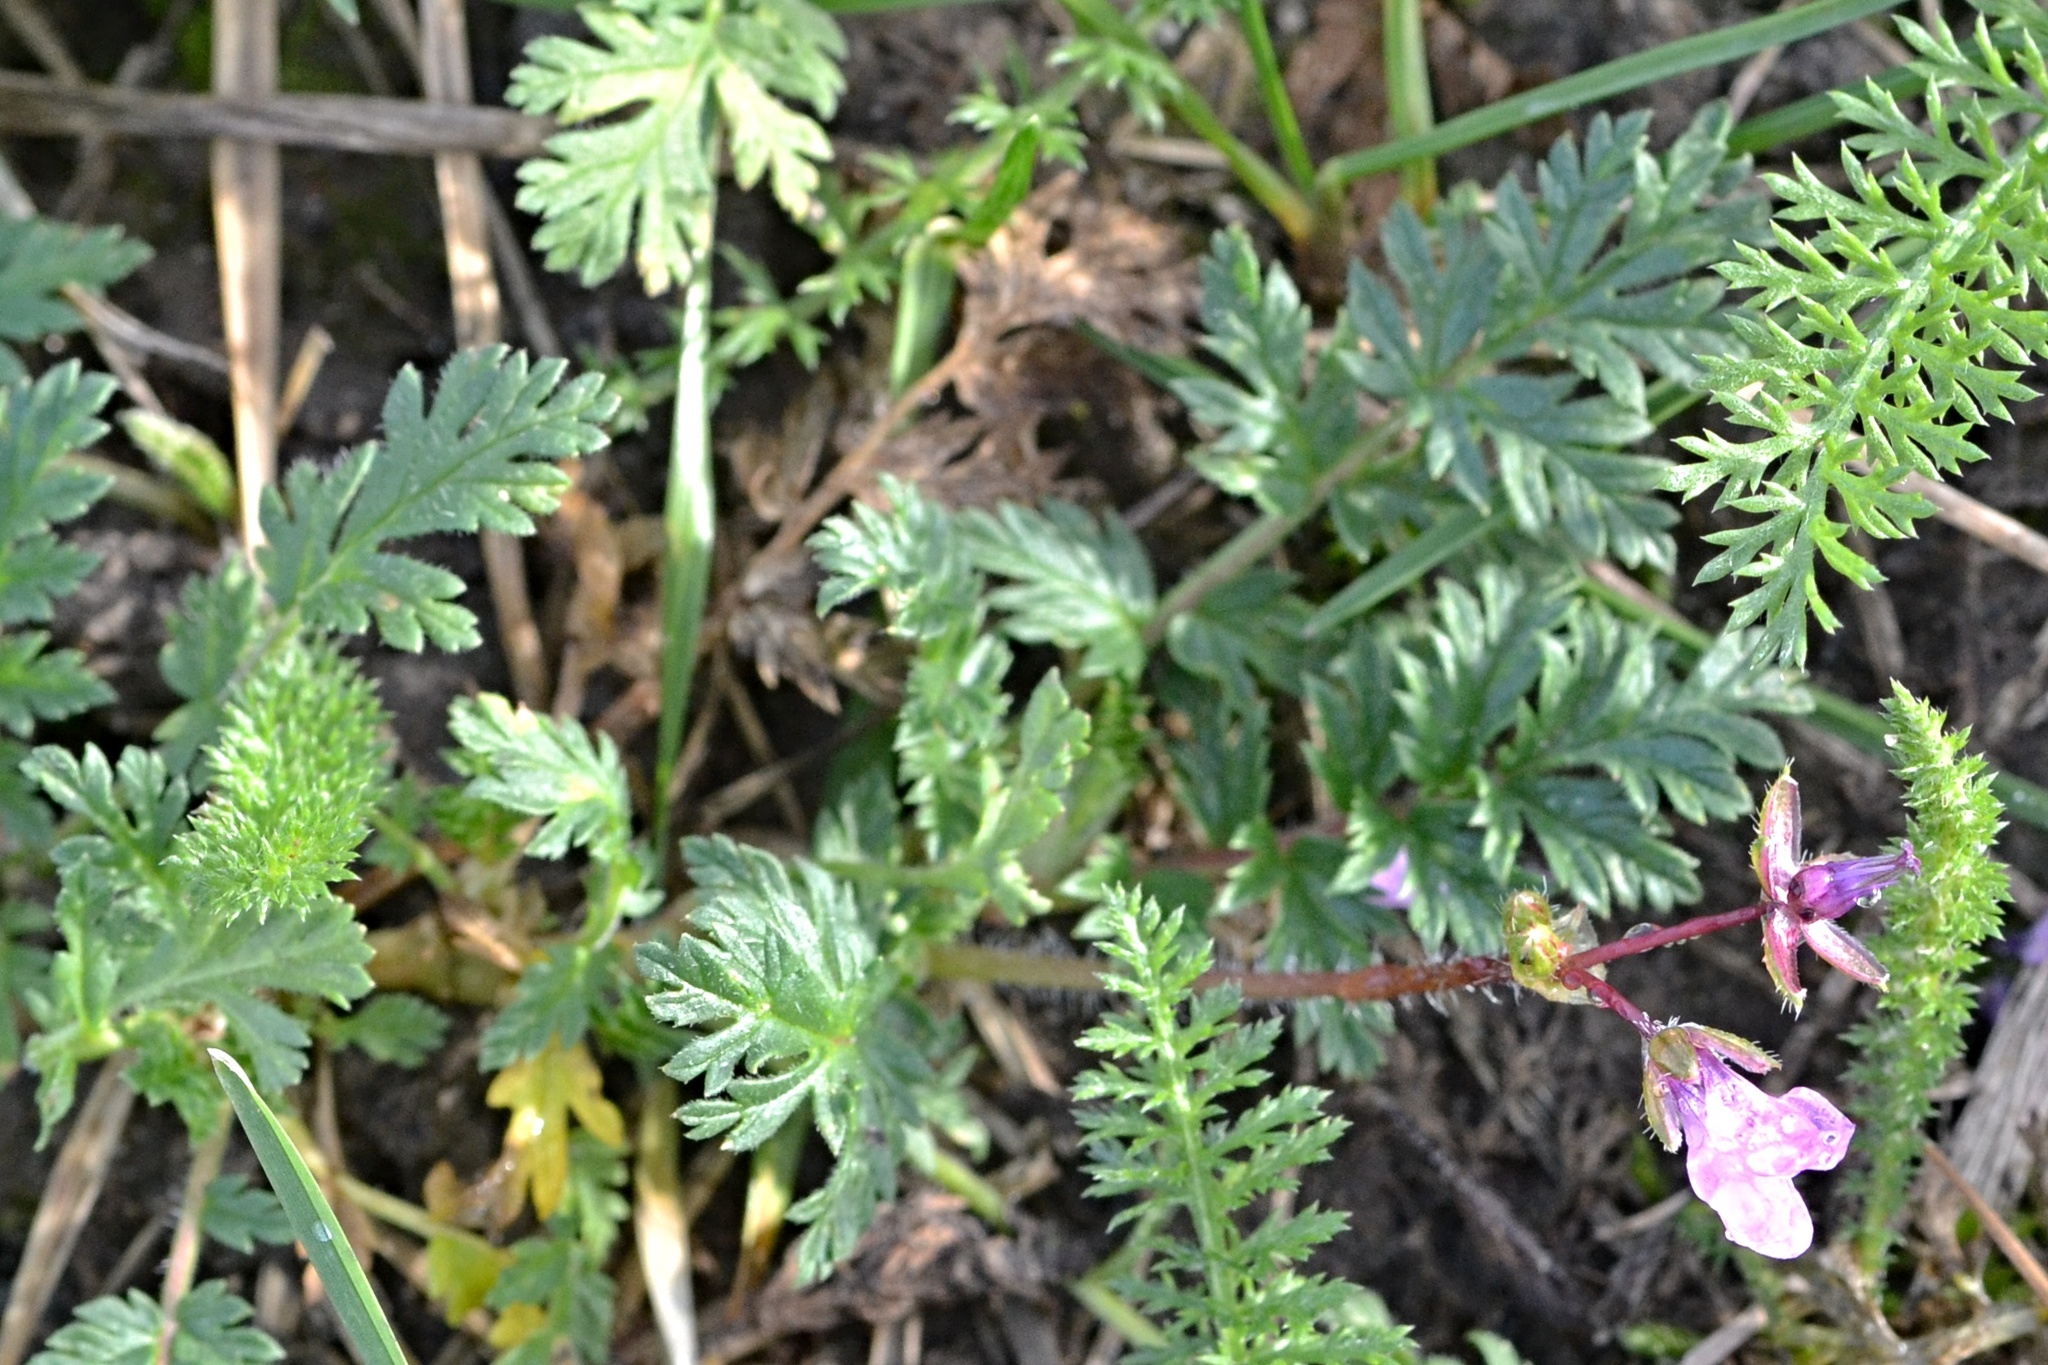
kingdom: Plantae
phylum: Tracheophyta
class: Magnoliopsida
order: Geraniales
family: Geraniaceae
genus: Erodium
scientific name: Erodium cicutarium
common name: Common stork's-bill
